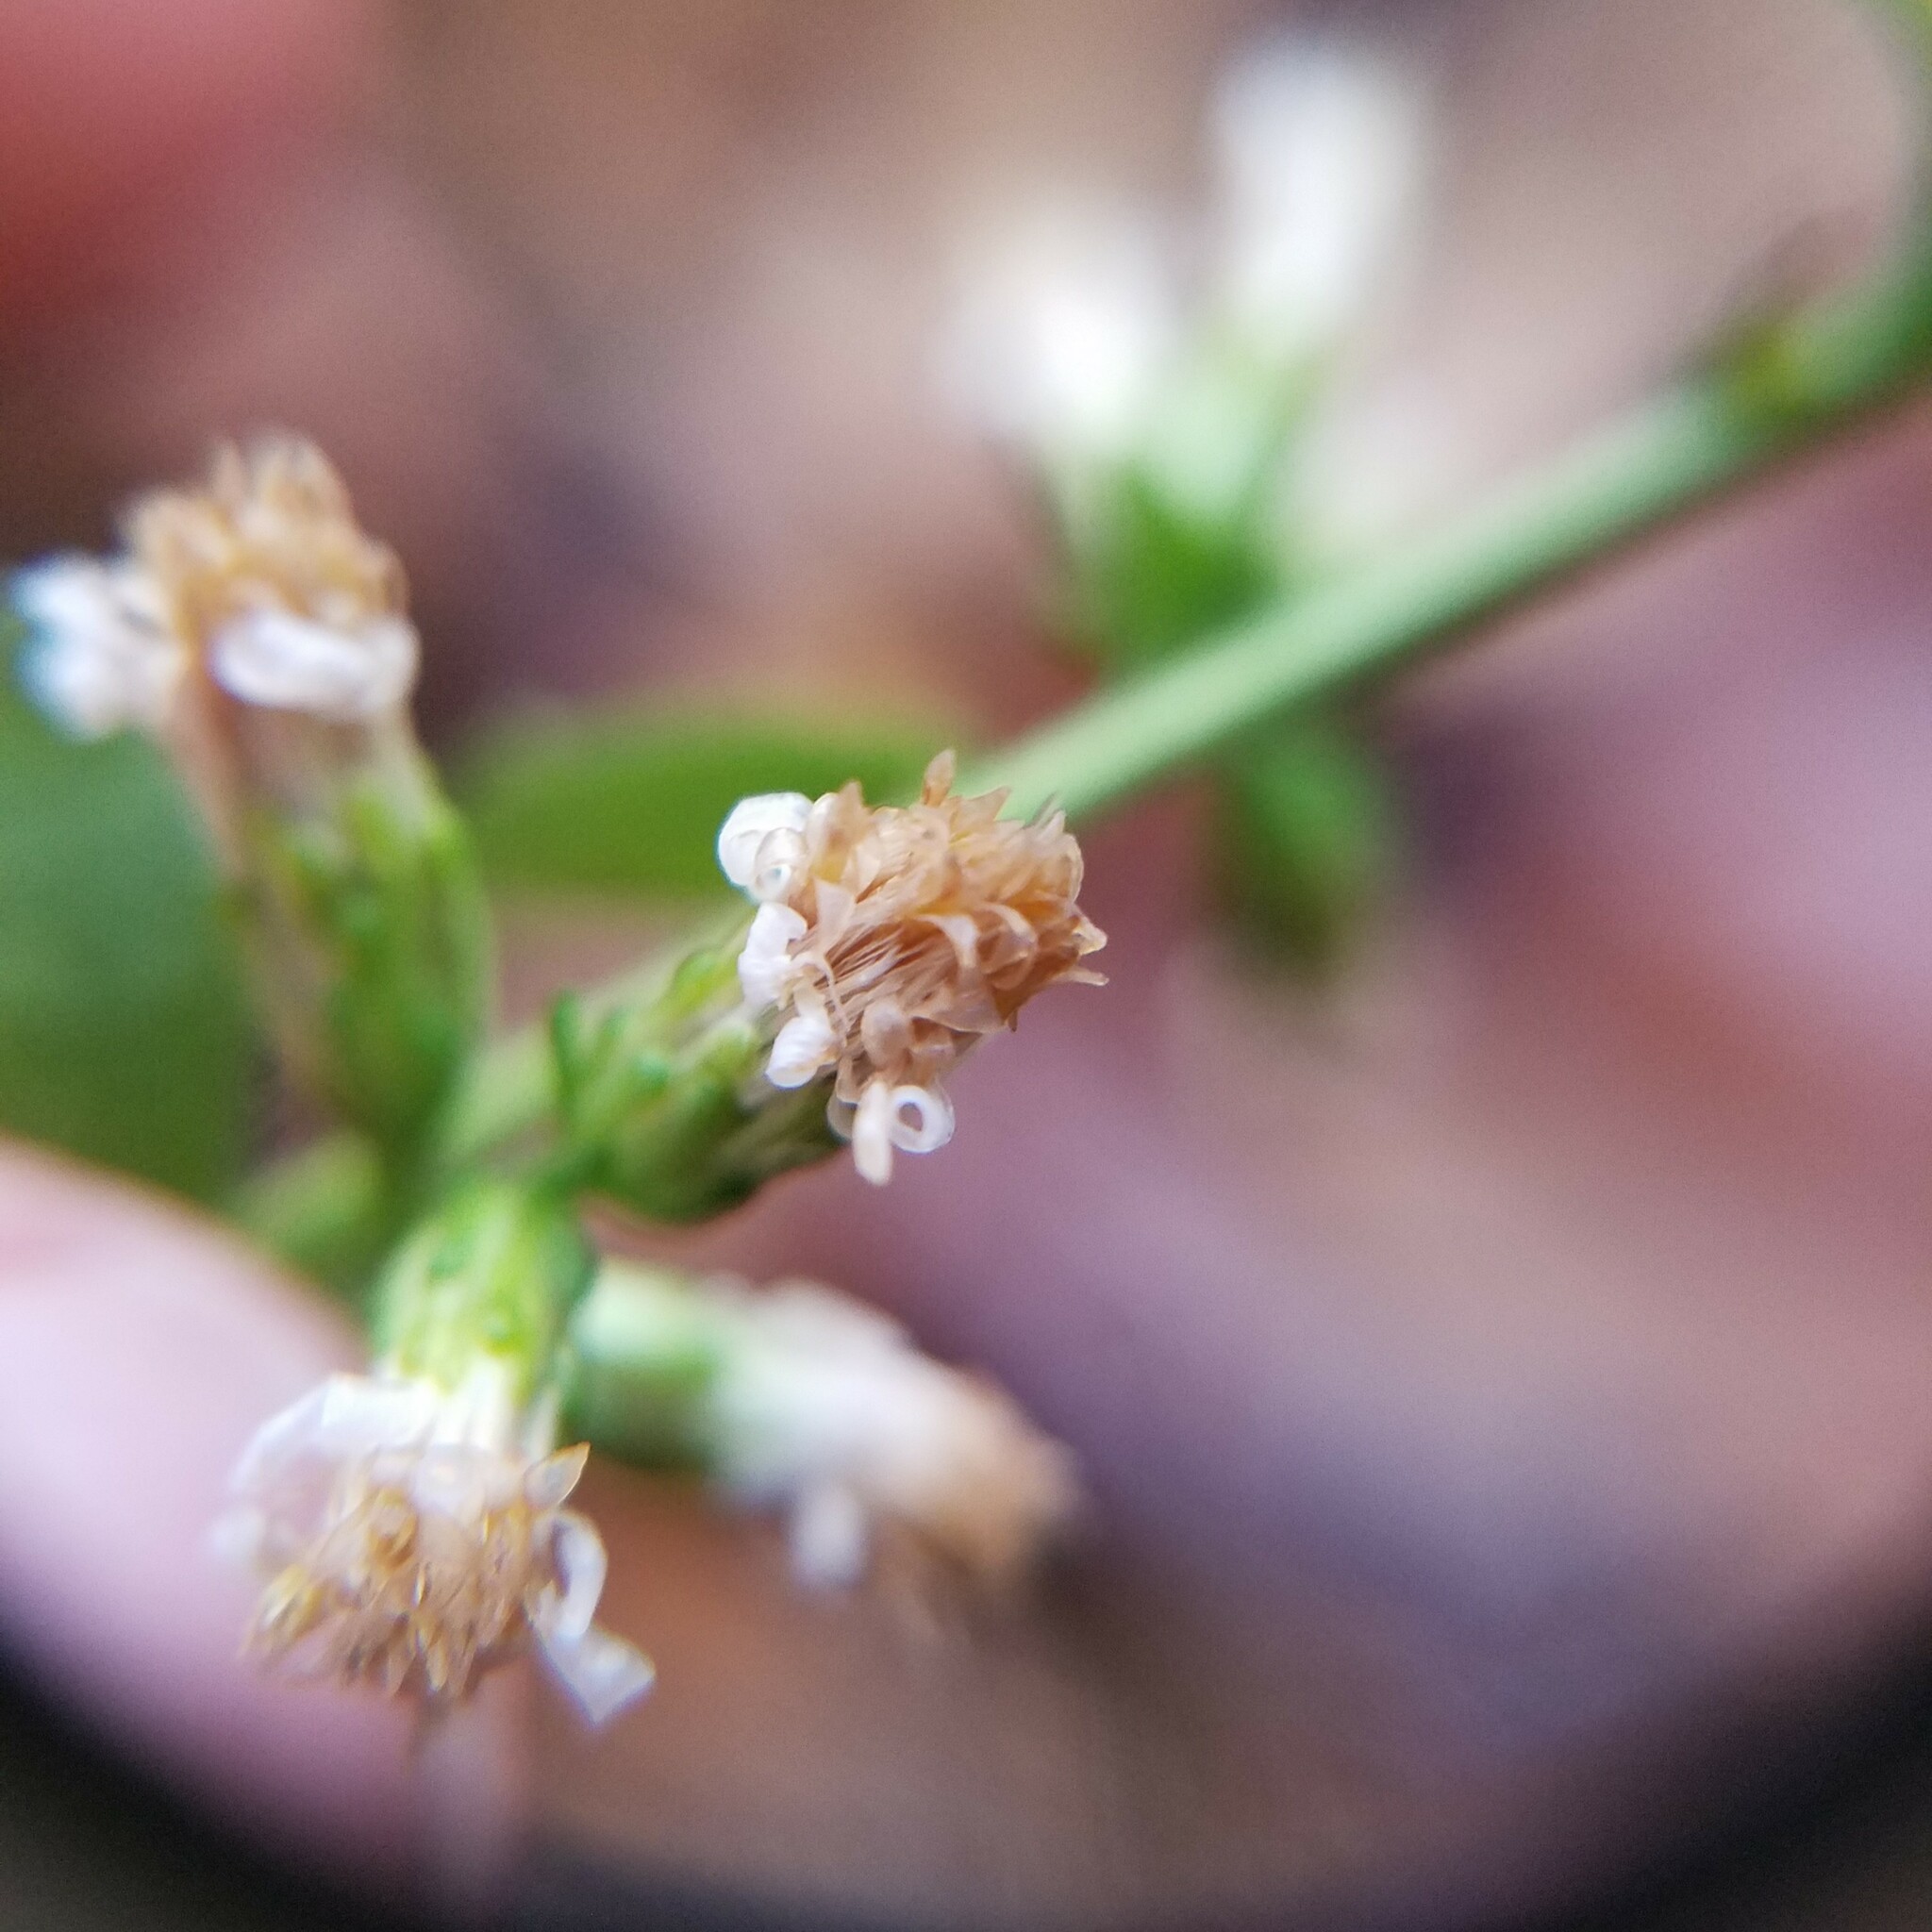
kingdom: Plantae
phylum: Tracheophyta
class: Magnoliopsida
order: Asterales
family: Asteraceae
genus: Solidago
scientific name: Solidago bicolor
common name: Silverrod
